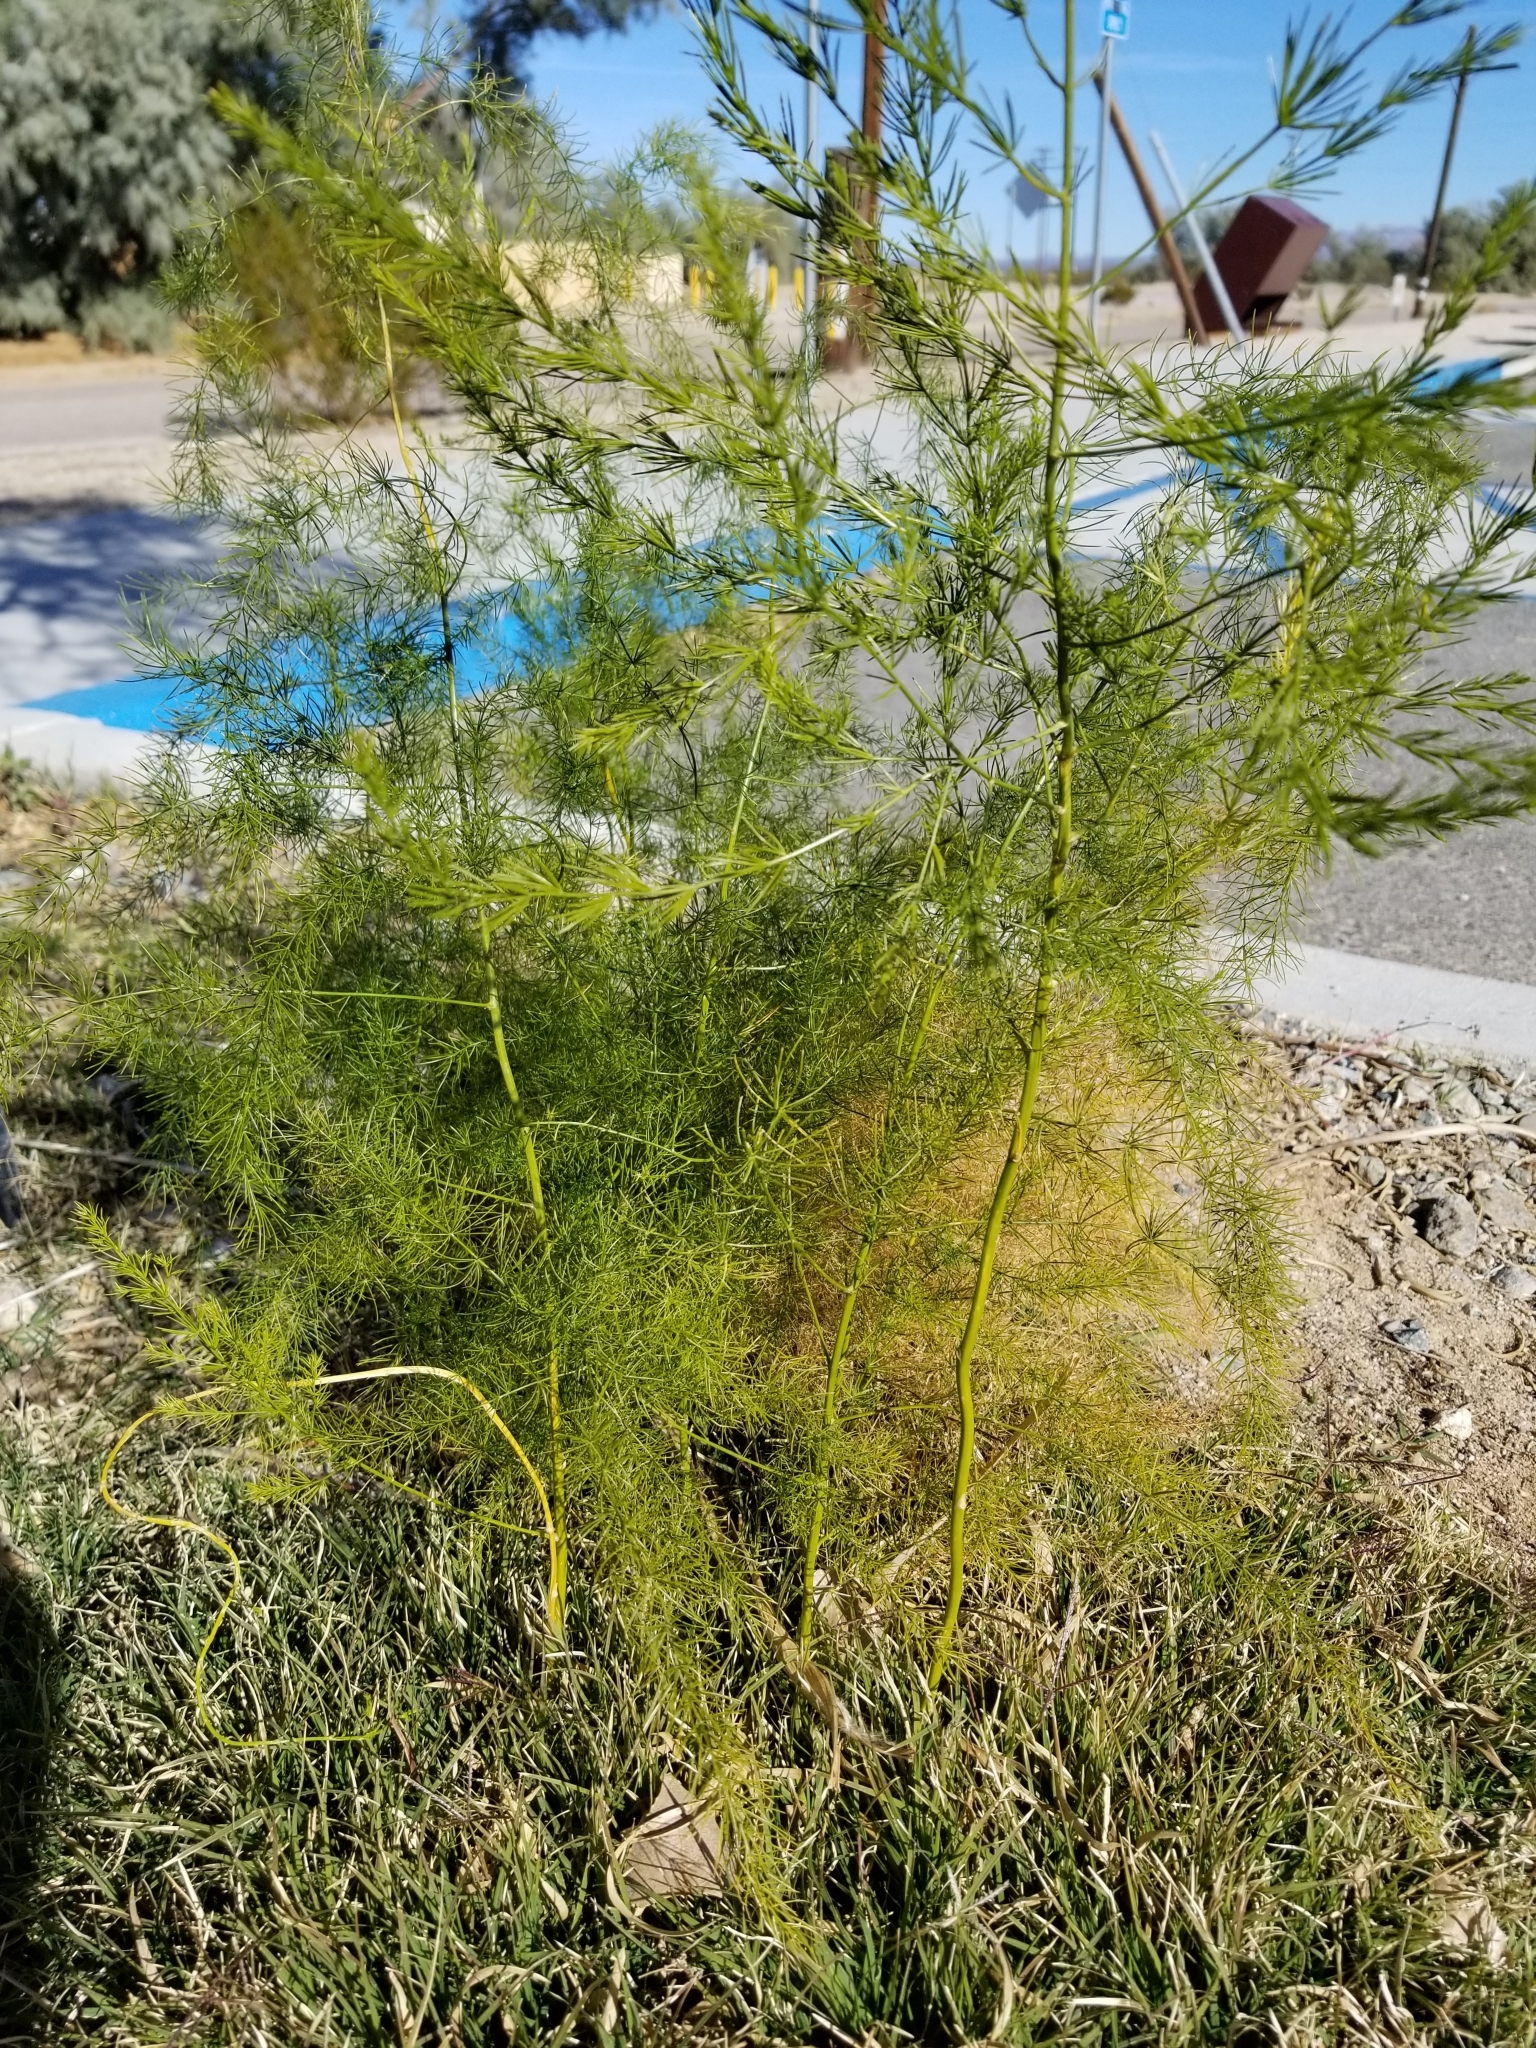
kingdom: Plantae
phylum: Tracheophyta
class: Liliopsida
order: Asparagales
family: Asparagaceae
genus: Asparagus
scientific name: Asparagus officinalis
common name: Garden asparagus
